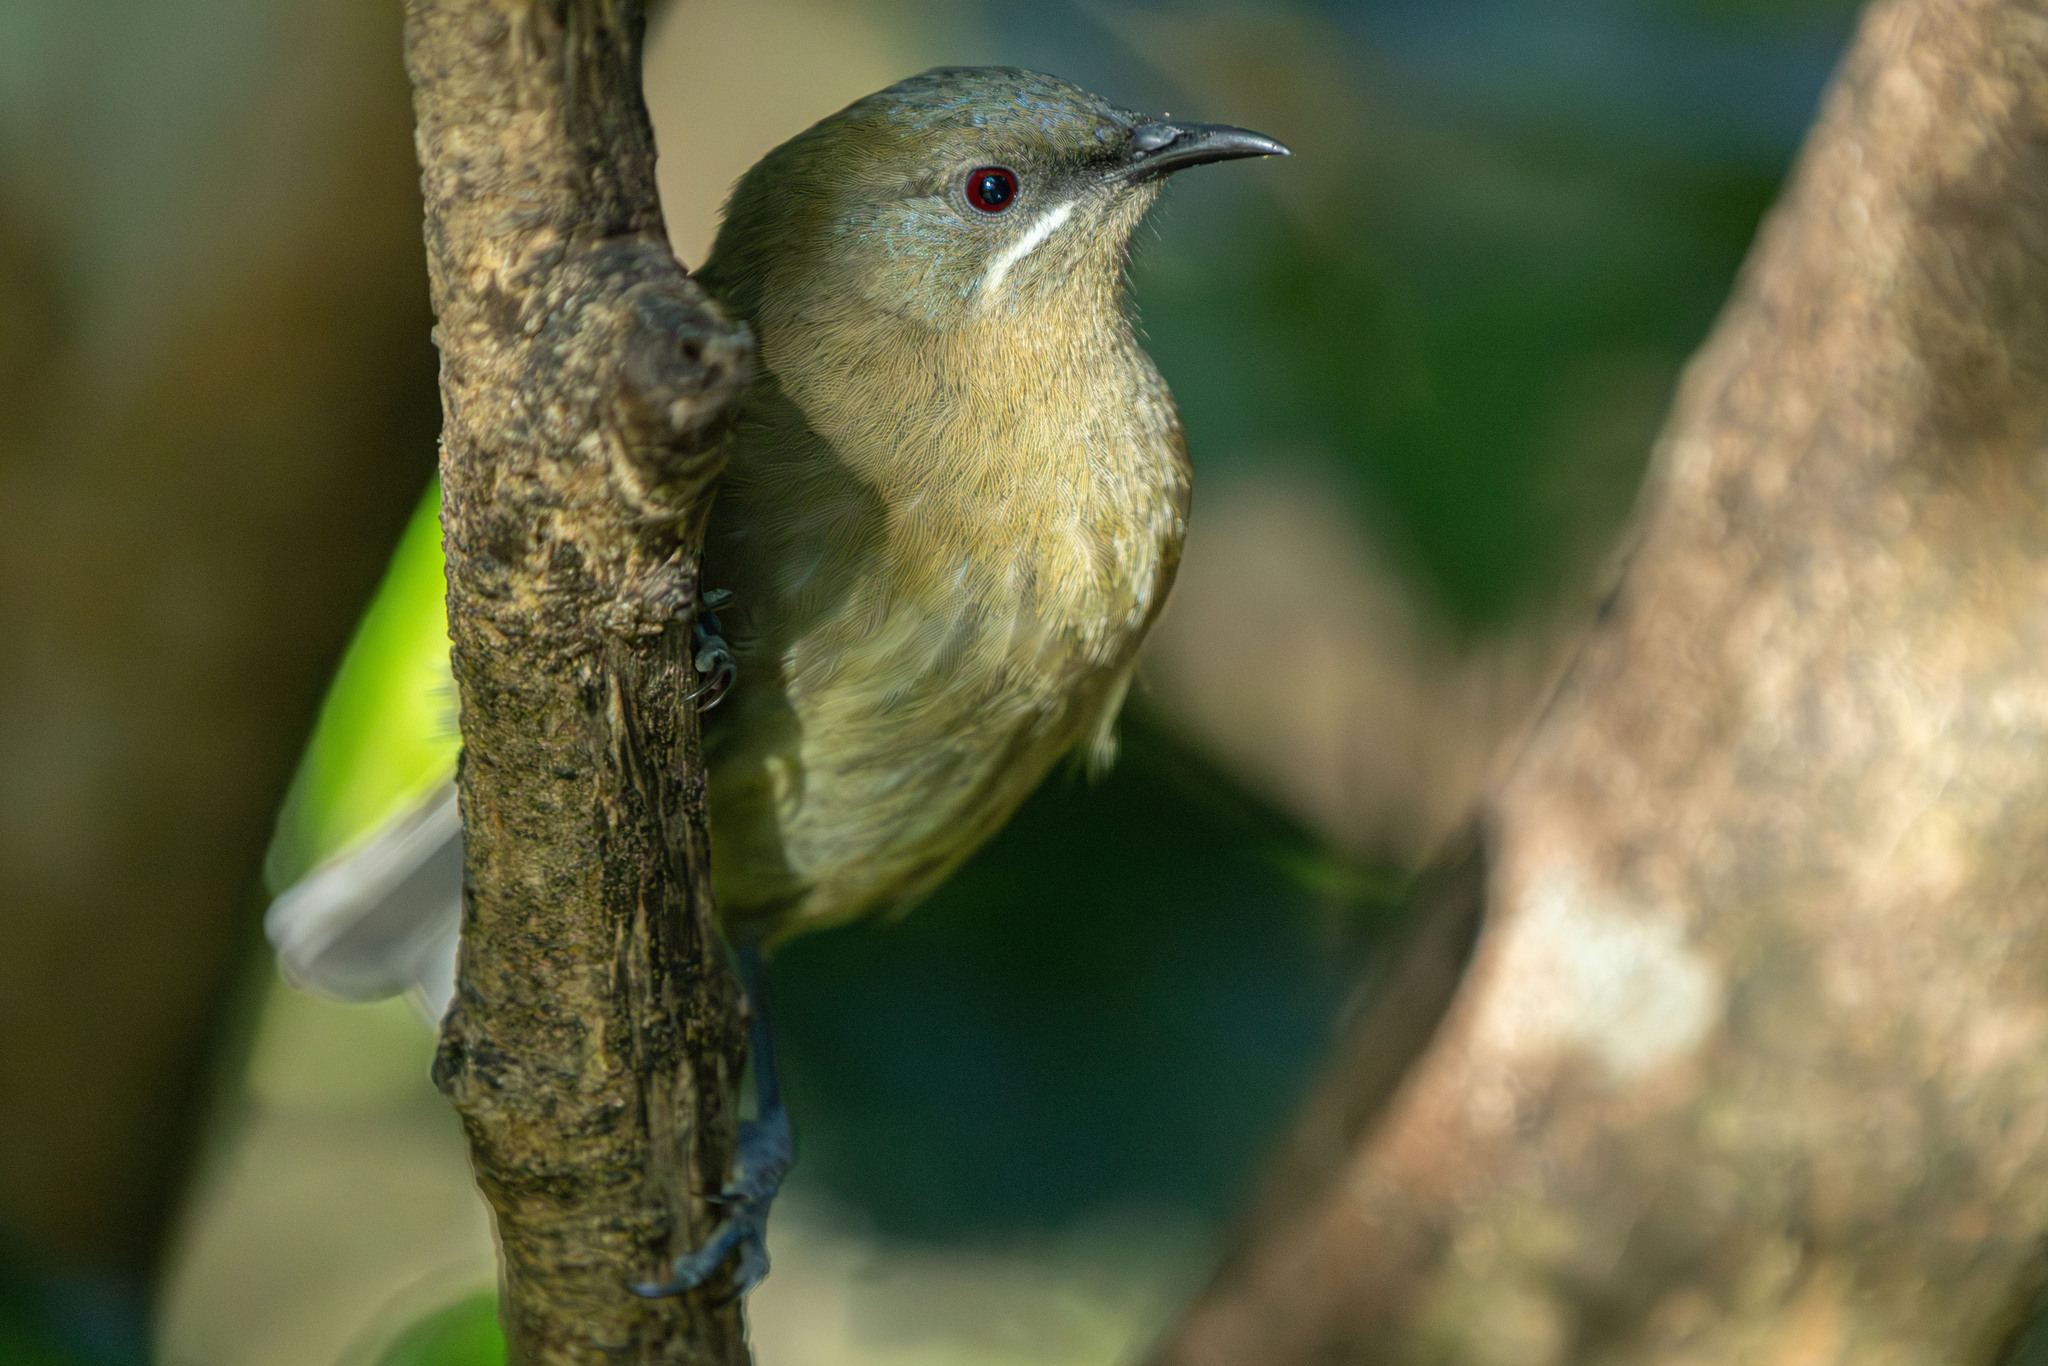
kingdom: Animalia
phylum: Chordata
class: Aves
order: Passeriformes
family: Meliphagidae
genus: Anthornis
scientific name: Anthornis melanura
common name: New zealand bellbird
